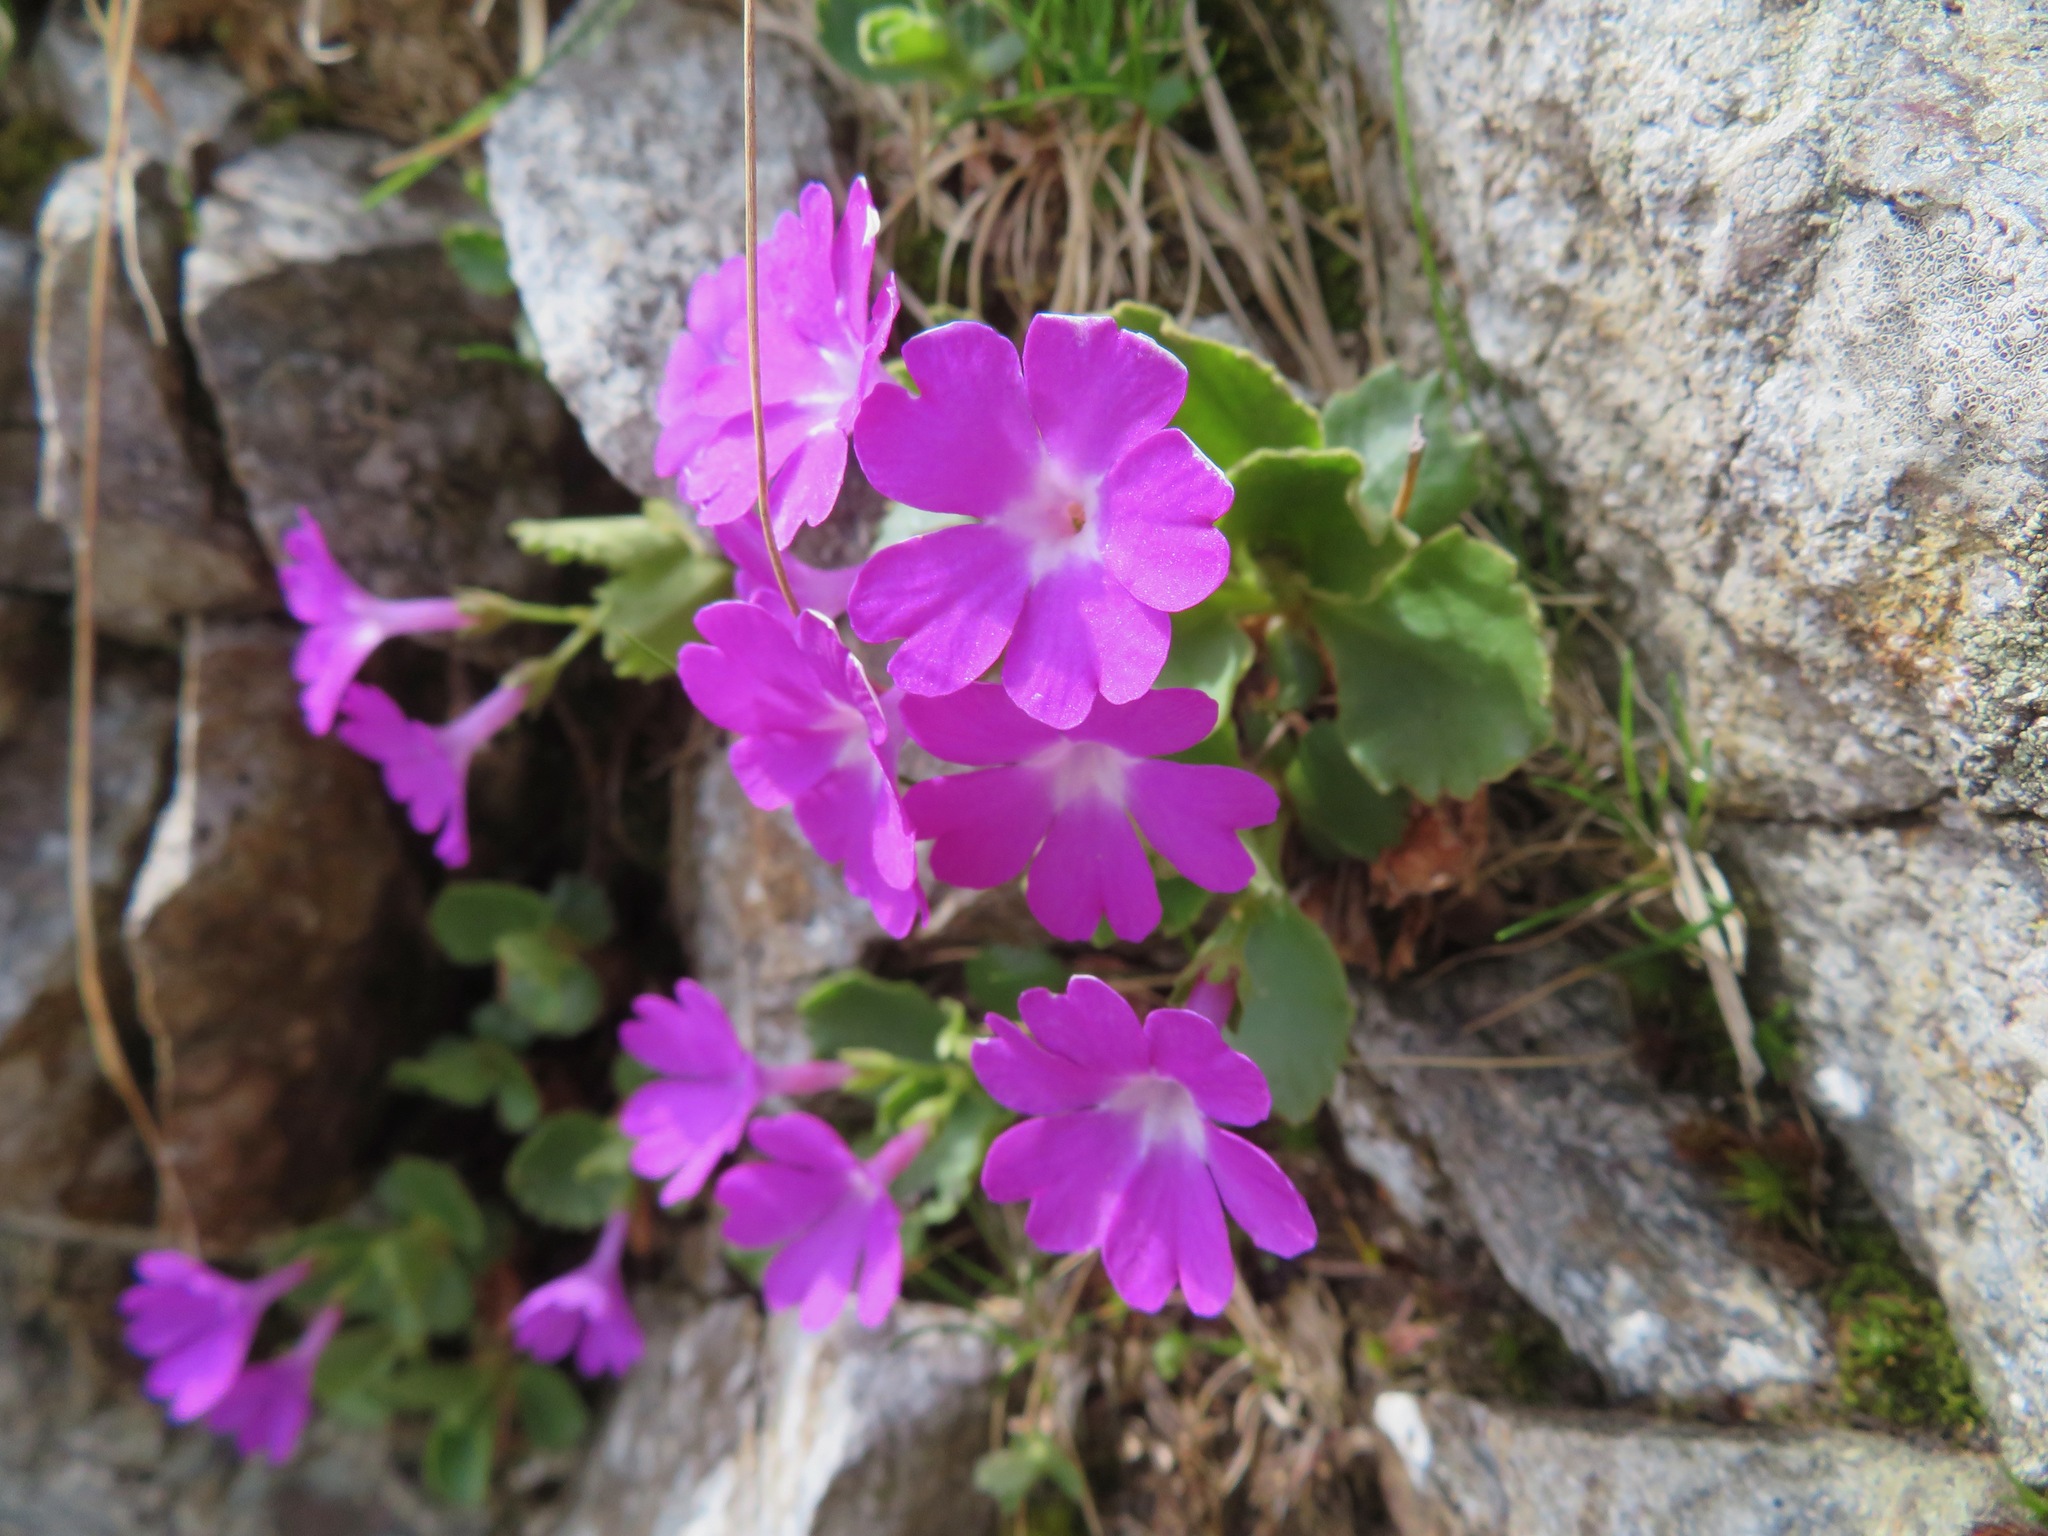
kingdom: Plantae
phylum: Tracheophyta
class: Magnoliopsida
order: Ericales
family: Primulaceae
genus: Primula
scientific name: Primula hirsuta
